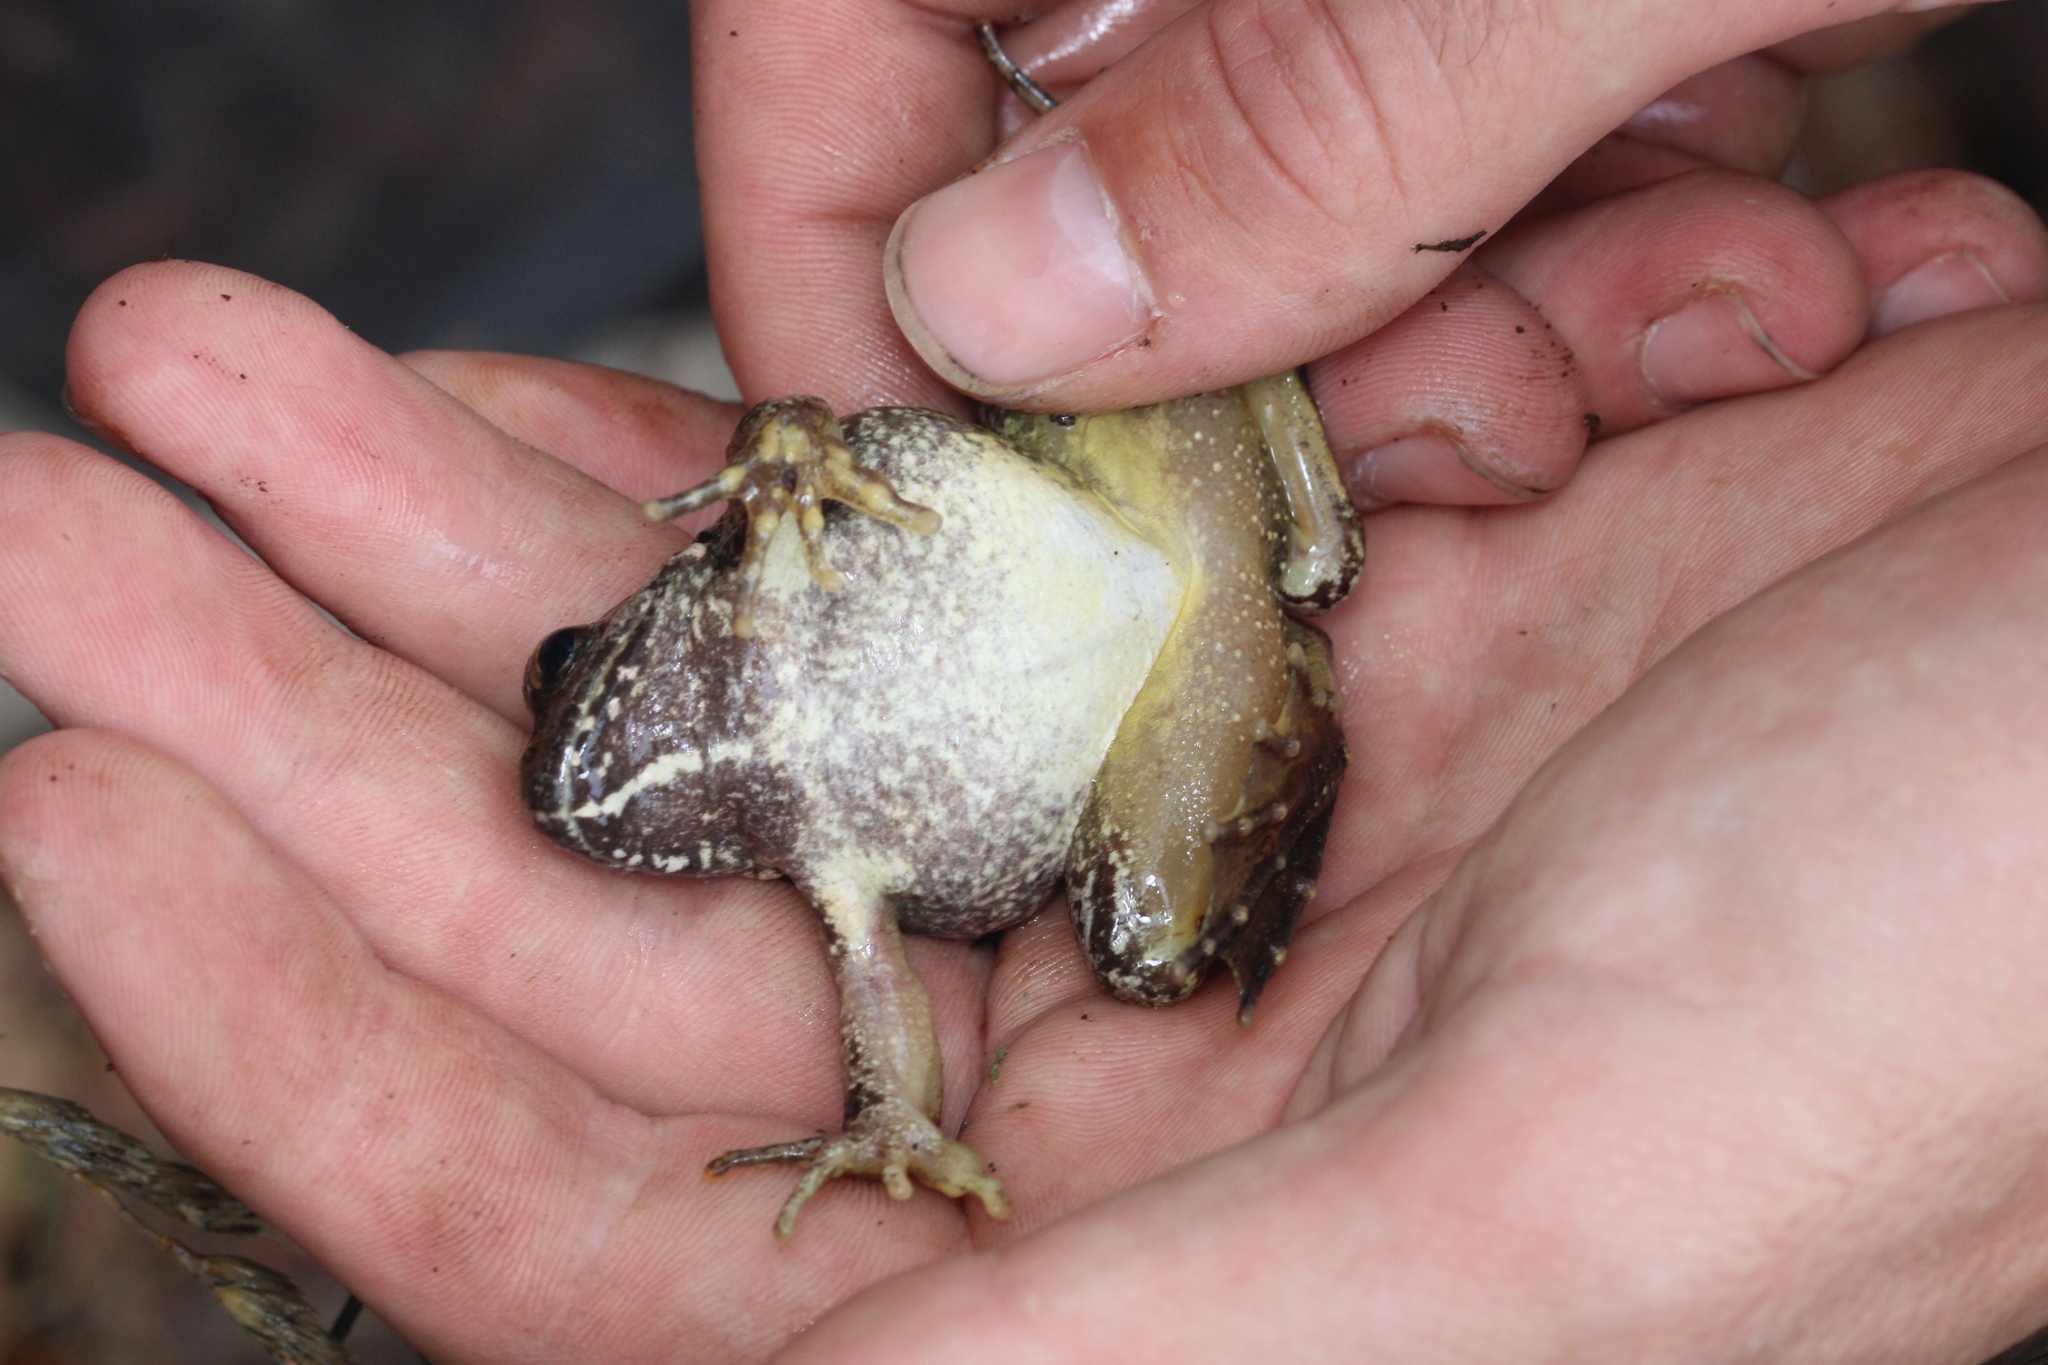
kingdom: Animalia
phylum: Chordata
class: Amphibia
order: Anura
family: Ranidae
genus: Rana
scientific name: Rana graeca
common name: Greek stream frog
